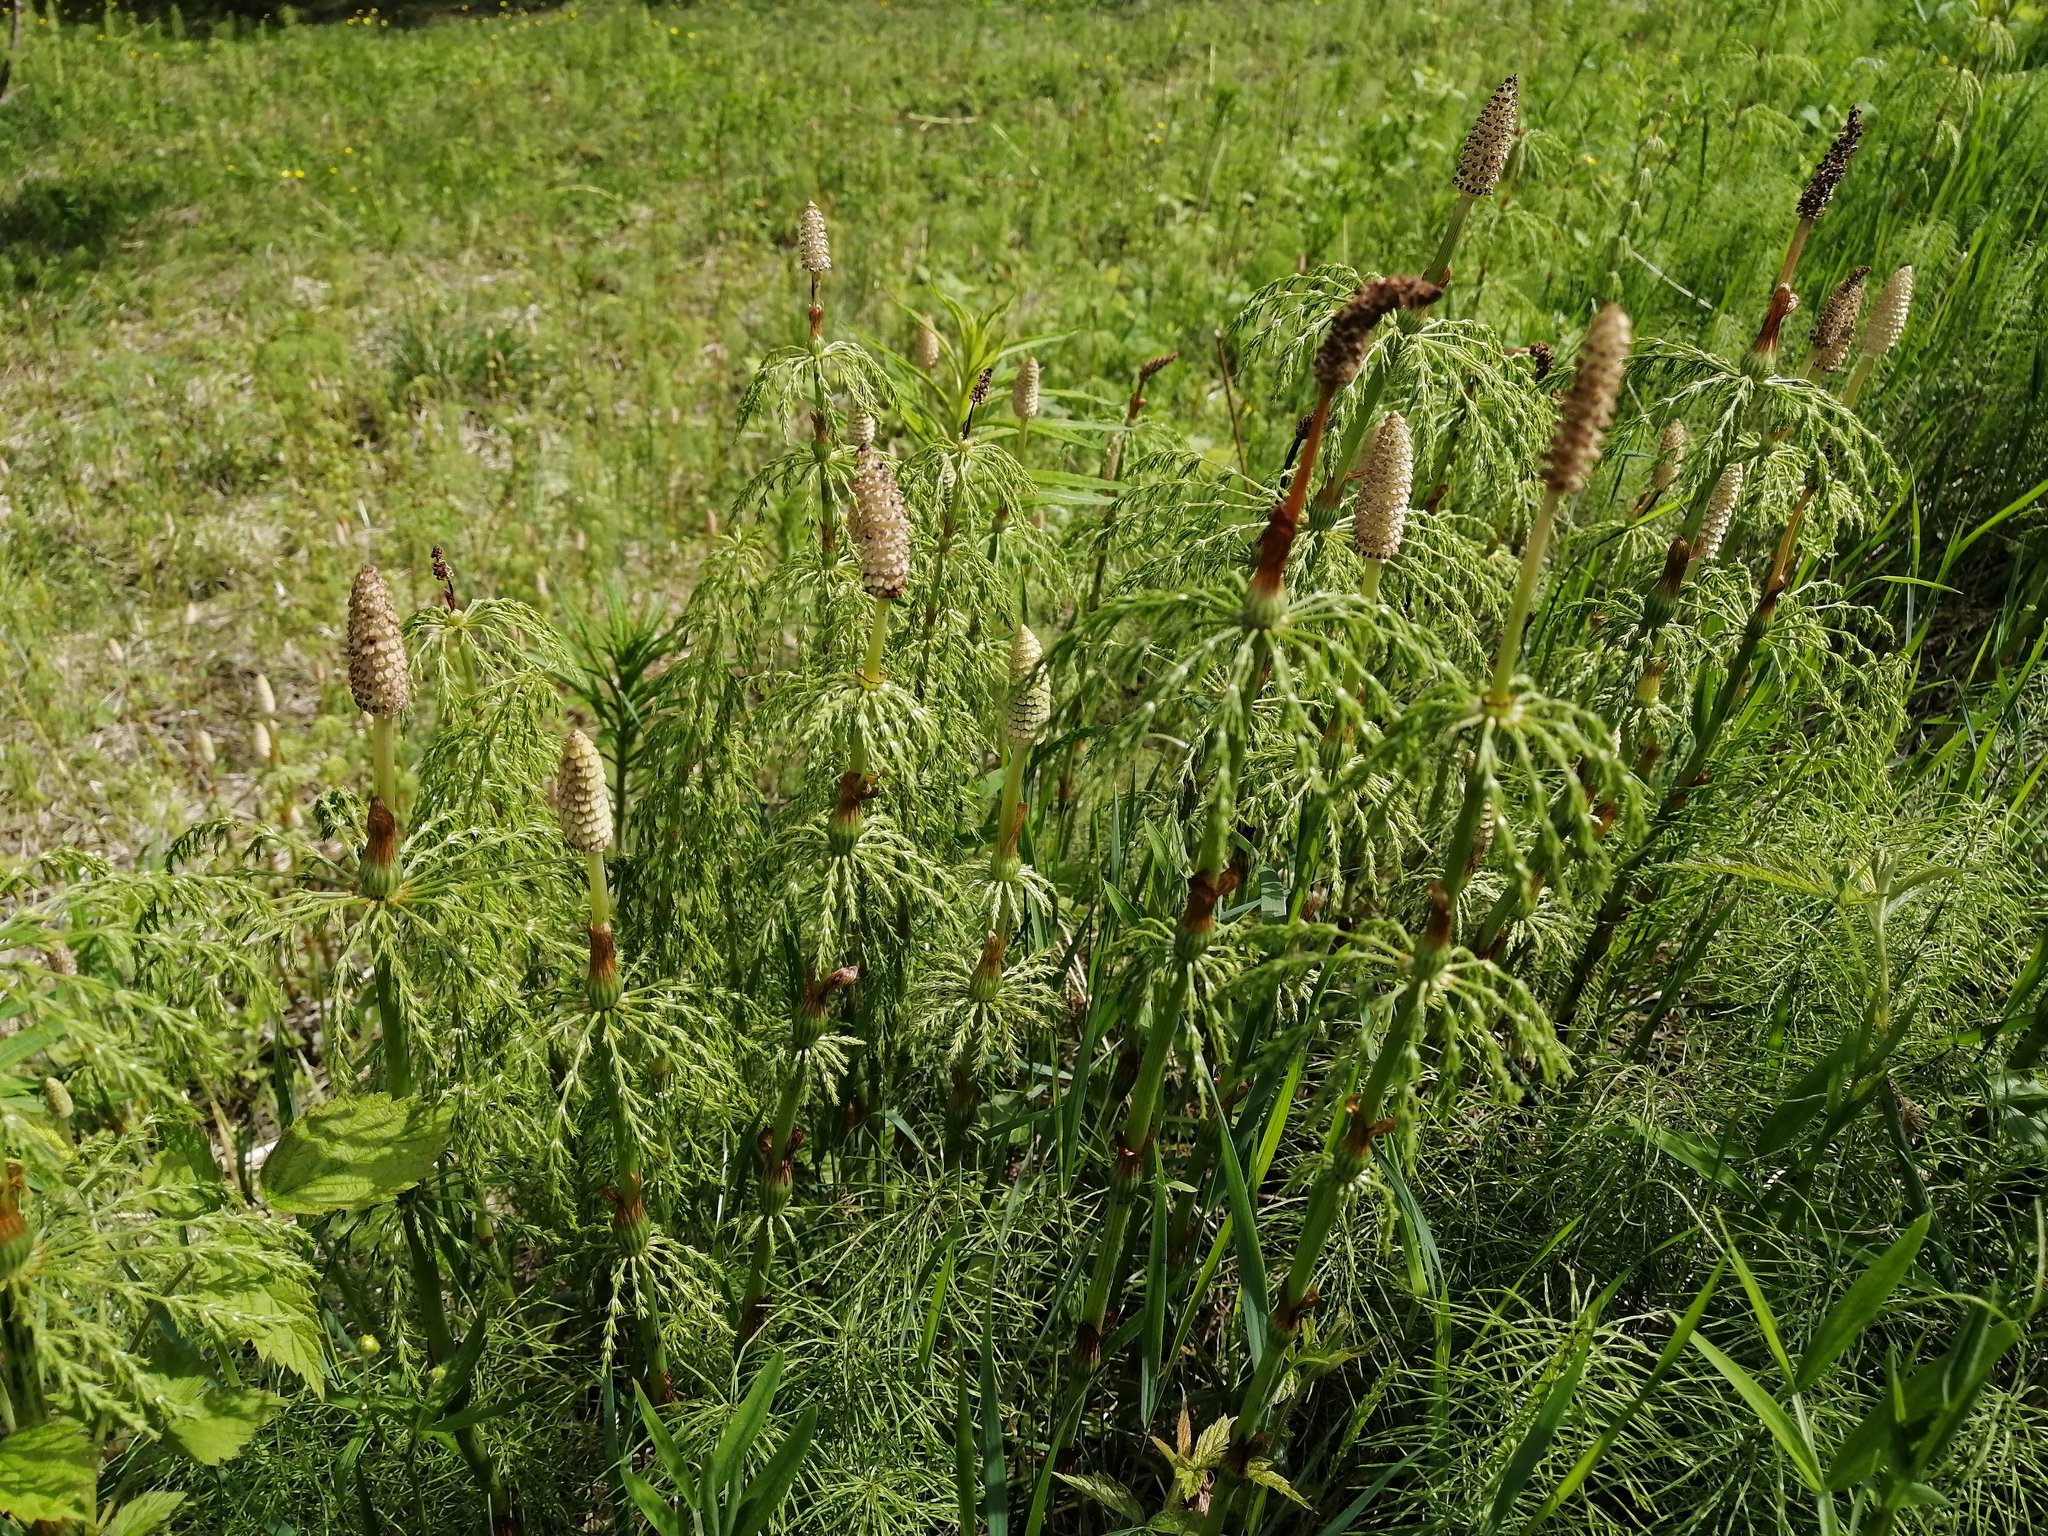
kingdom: Plantae
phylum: Tracheophyta
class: Polypodiopsida
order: Equisetales
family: Equisetaceae
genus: Equisetum
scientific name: Equisetum sylvaticum
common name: Wood horsetail
